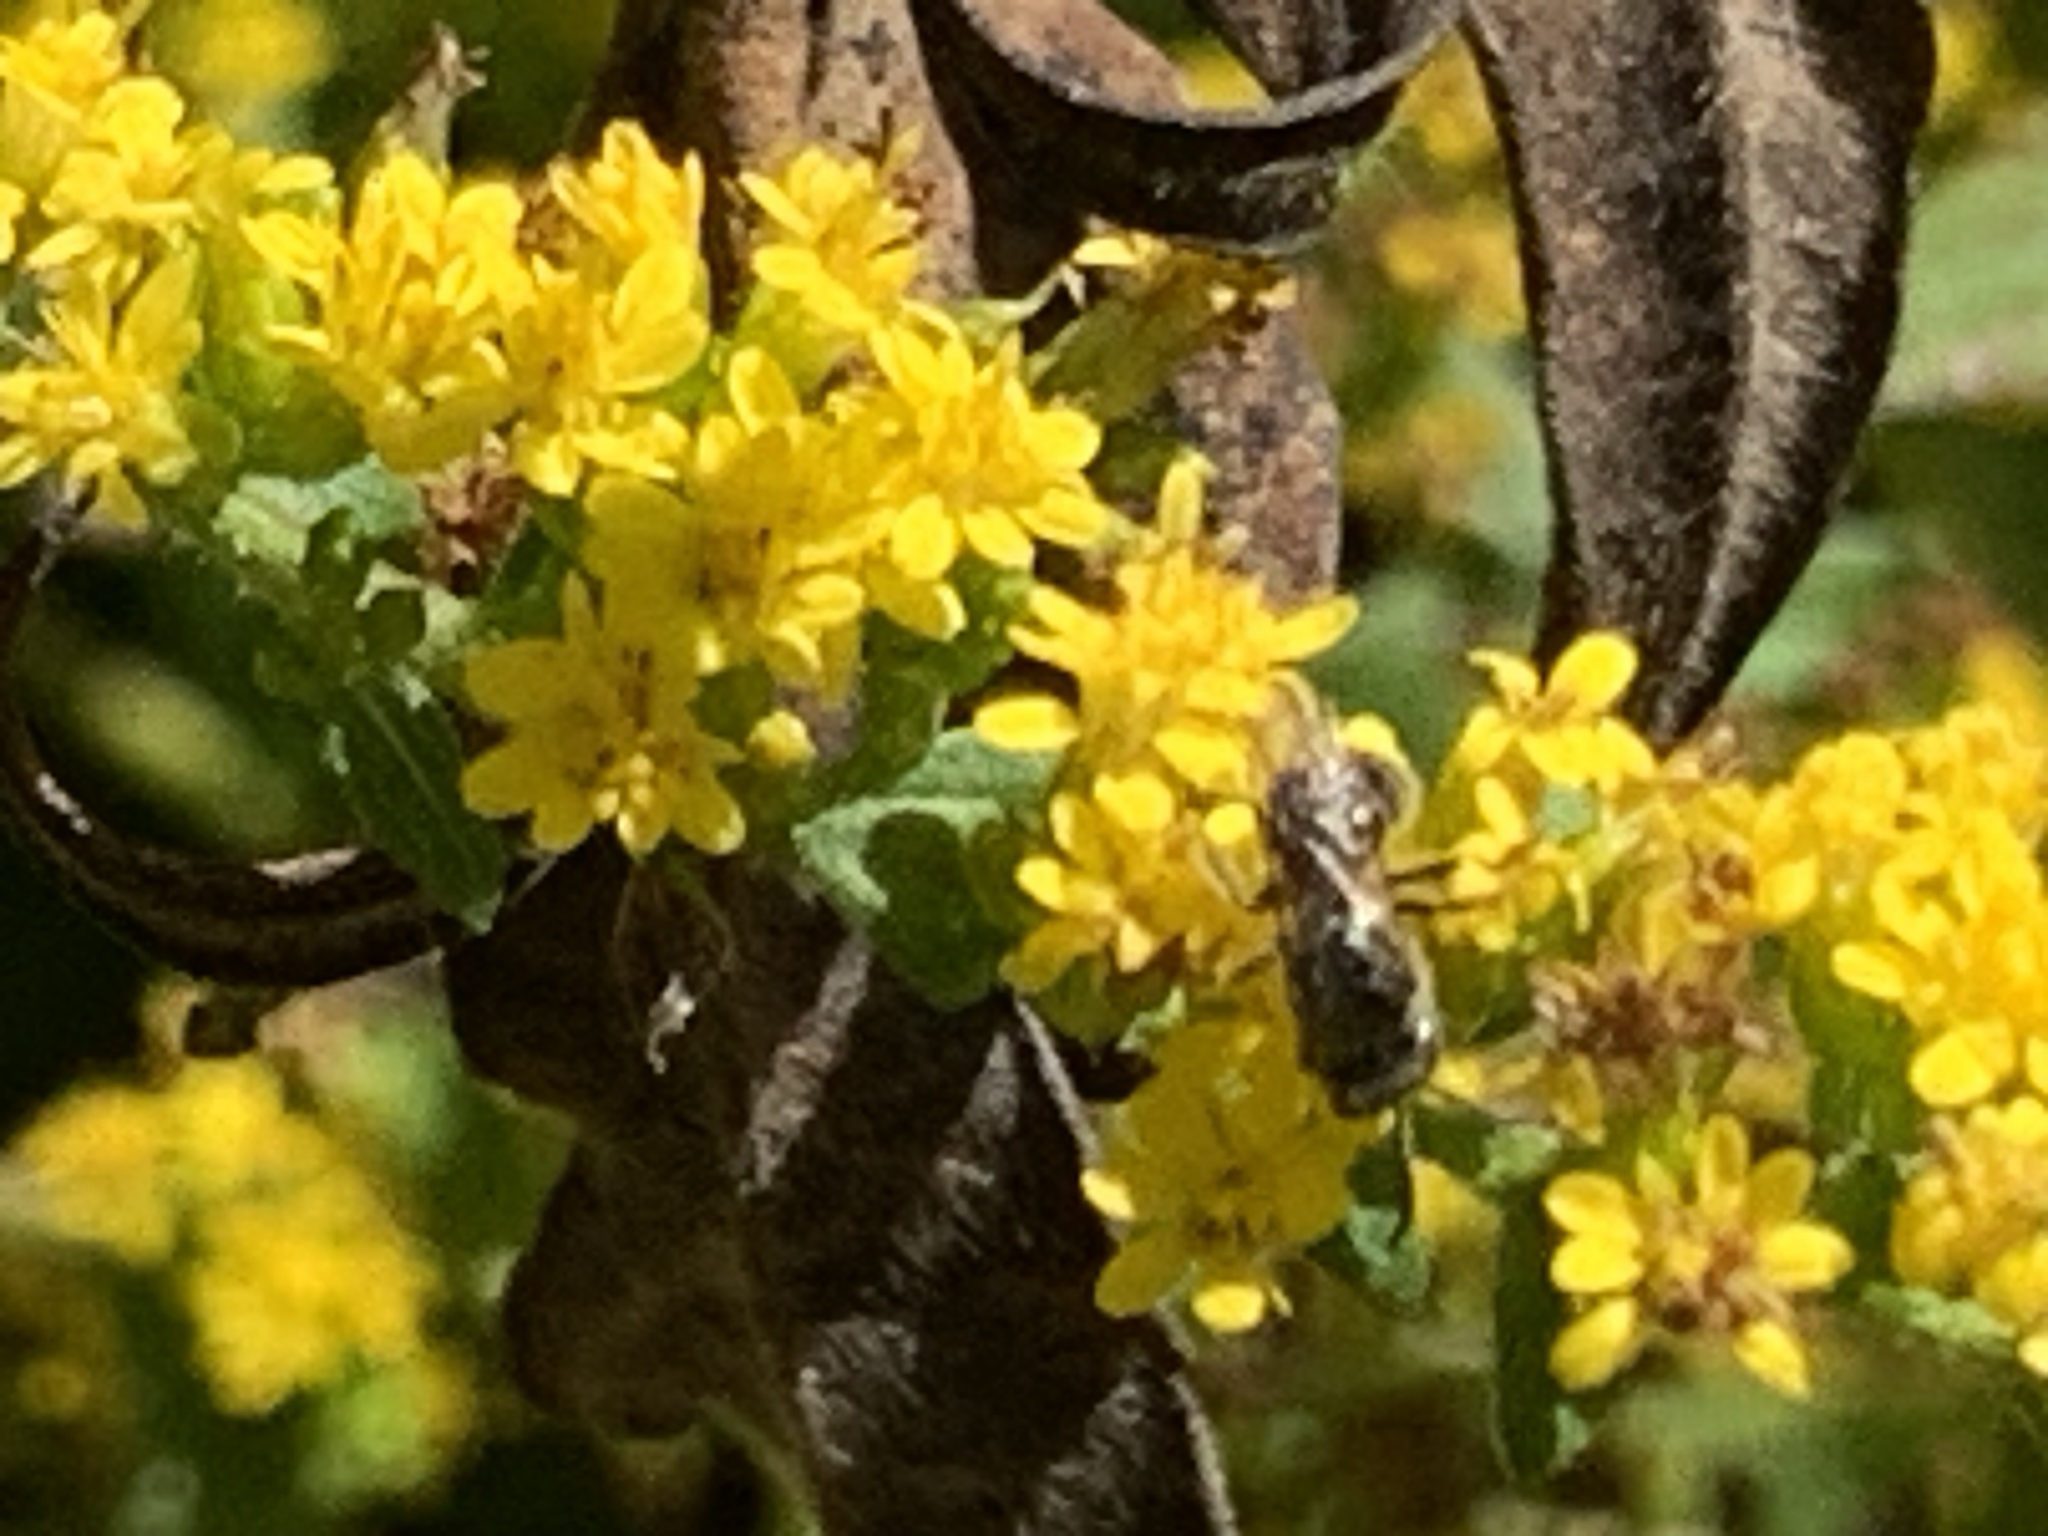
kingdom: Animalia
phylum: Arthropoda
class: Insecta
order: Hymenoptera
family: Halictidae
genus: Dialictus
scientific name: Dialictus
